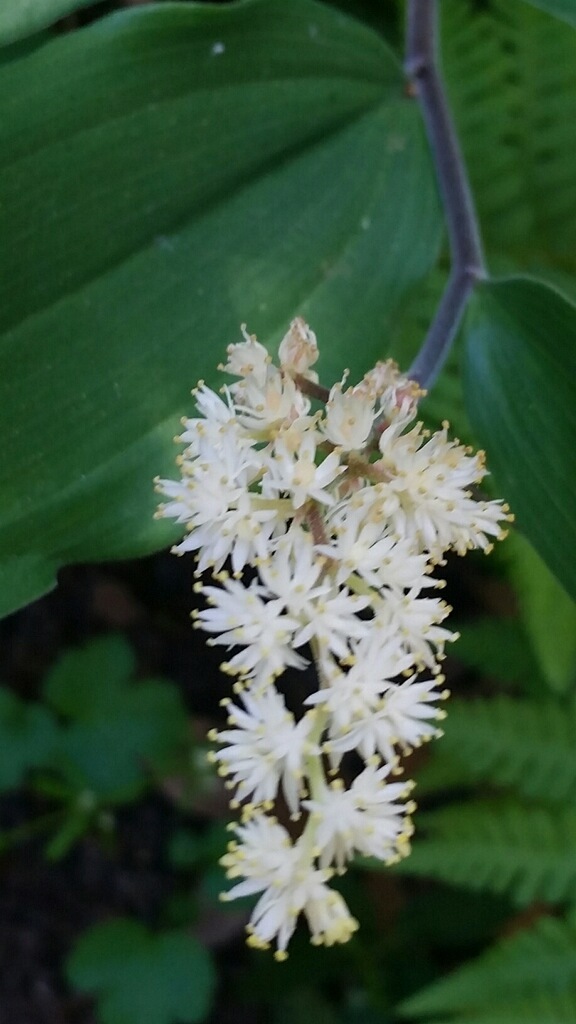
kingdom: Plantae
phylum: Tracheophyta
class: Liliopsida
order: Asparagales
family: Asparagaceae
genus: Maianthemum
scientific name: Maianthemum racemosum
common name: False spikenard
